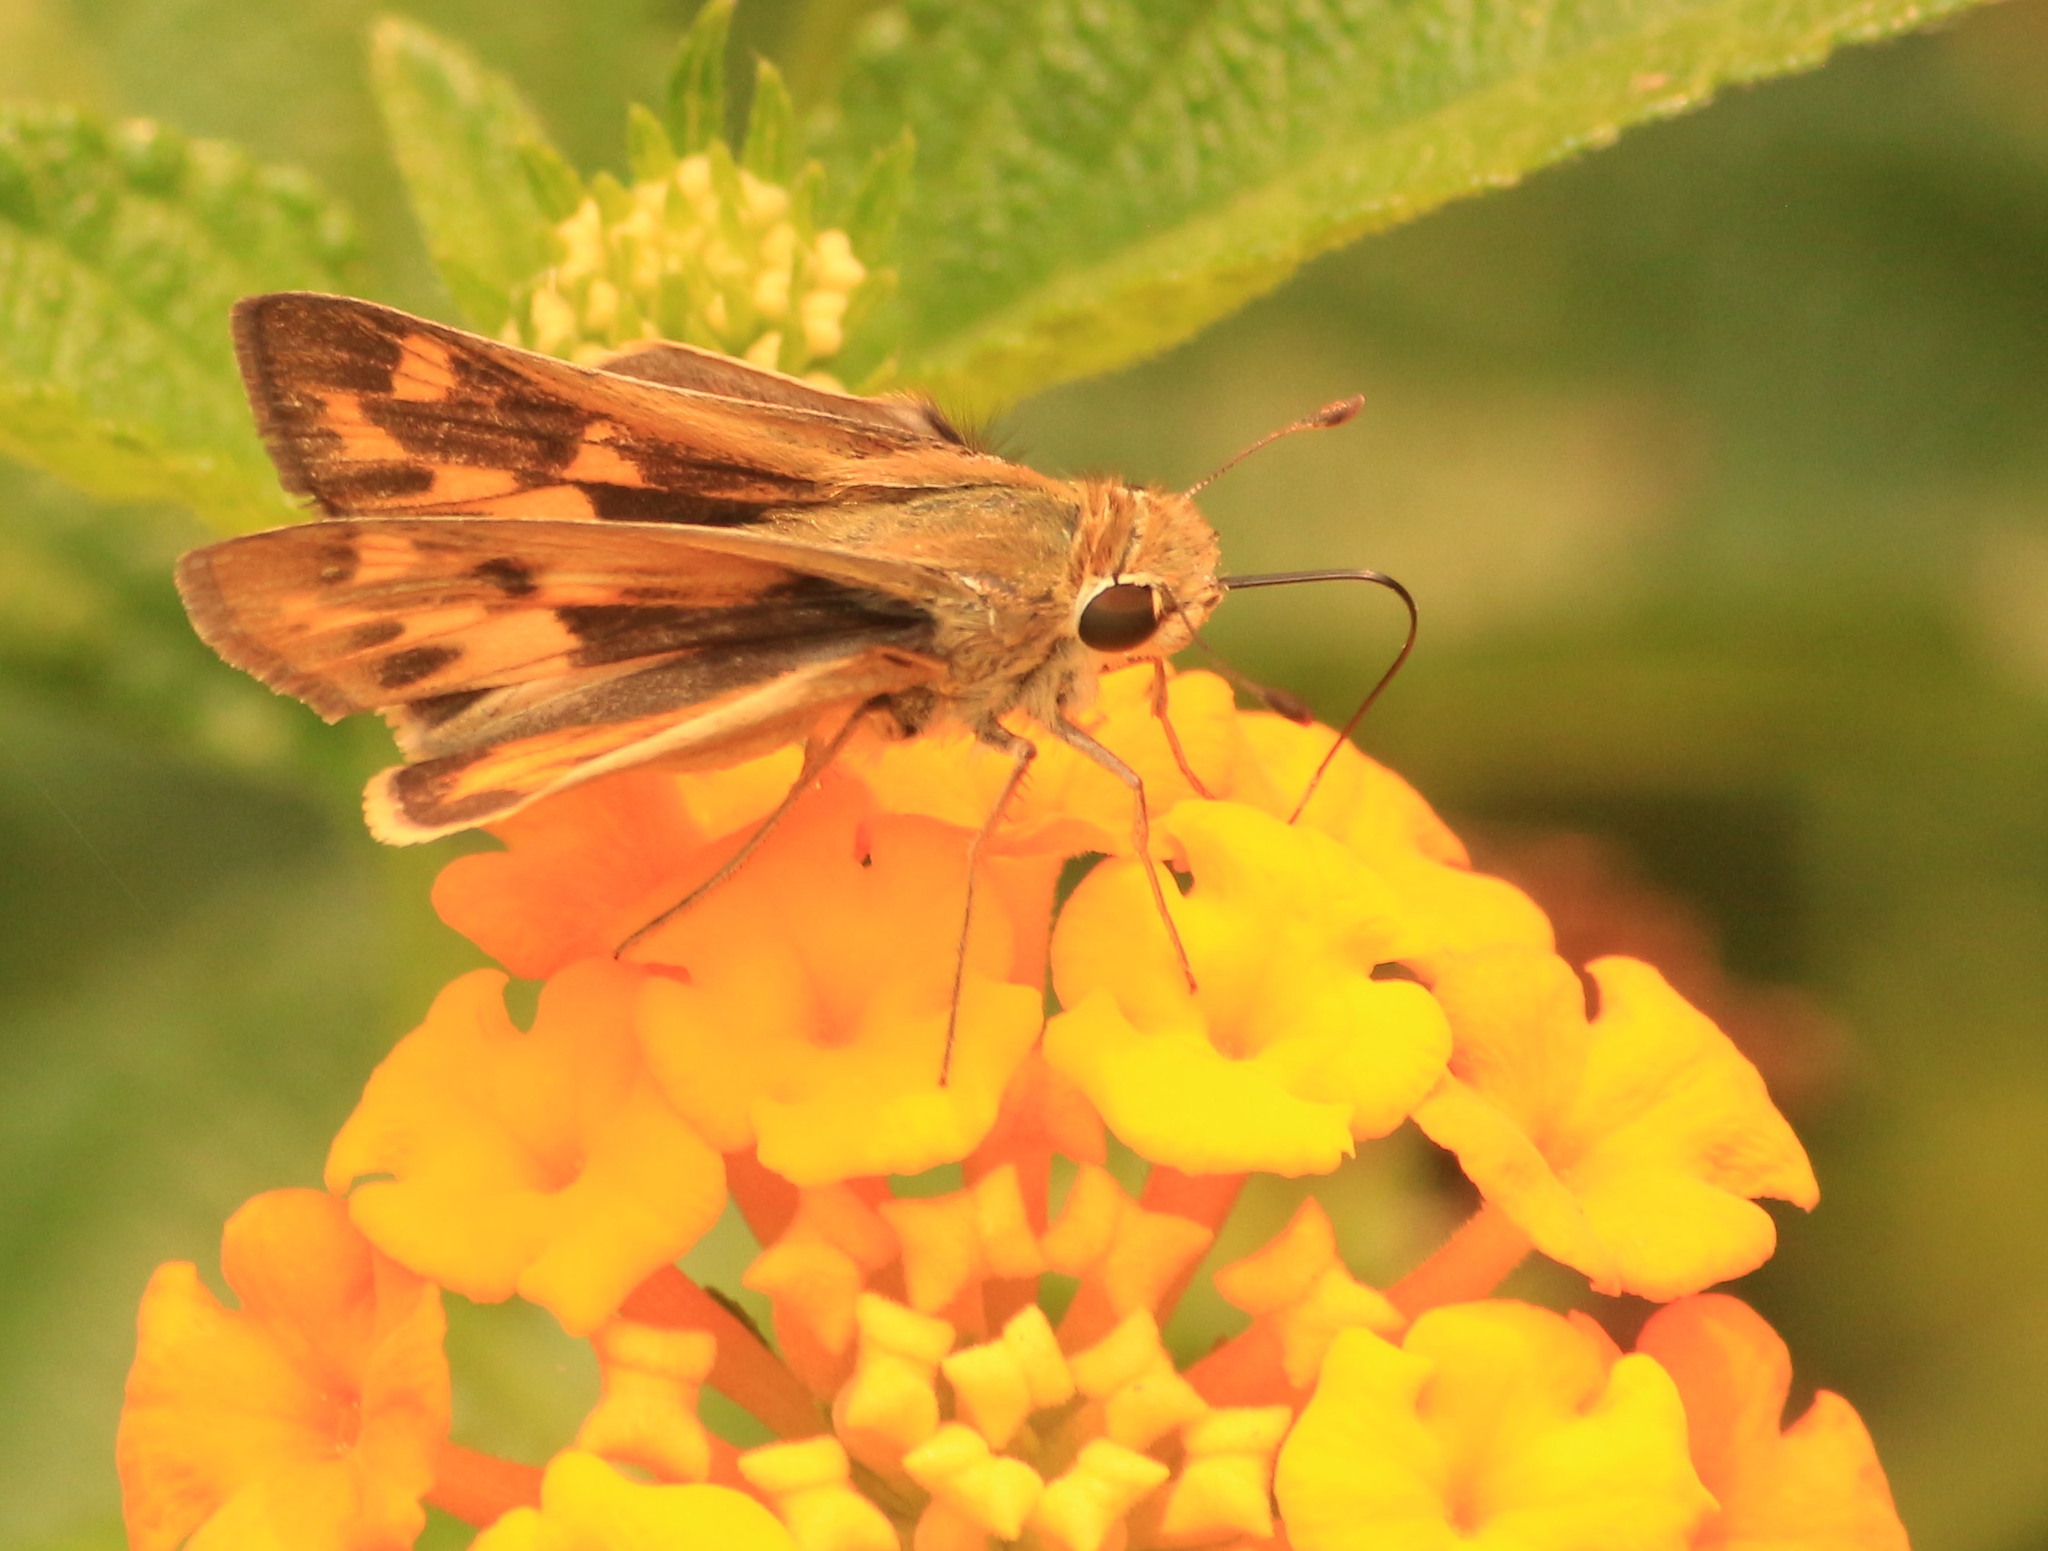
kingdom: Animalia
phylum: Arthropoda
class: Insecta
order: Lepidoptera
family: Hesperiidae
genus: Hylephila
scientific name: Hylephila phyleus
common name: Fiery skipper
